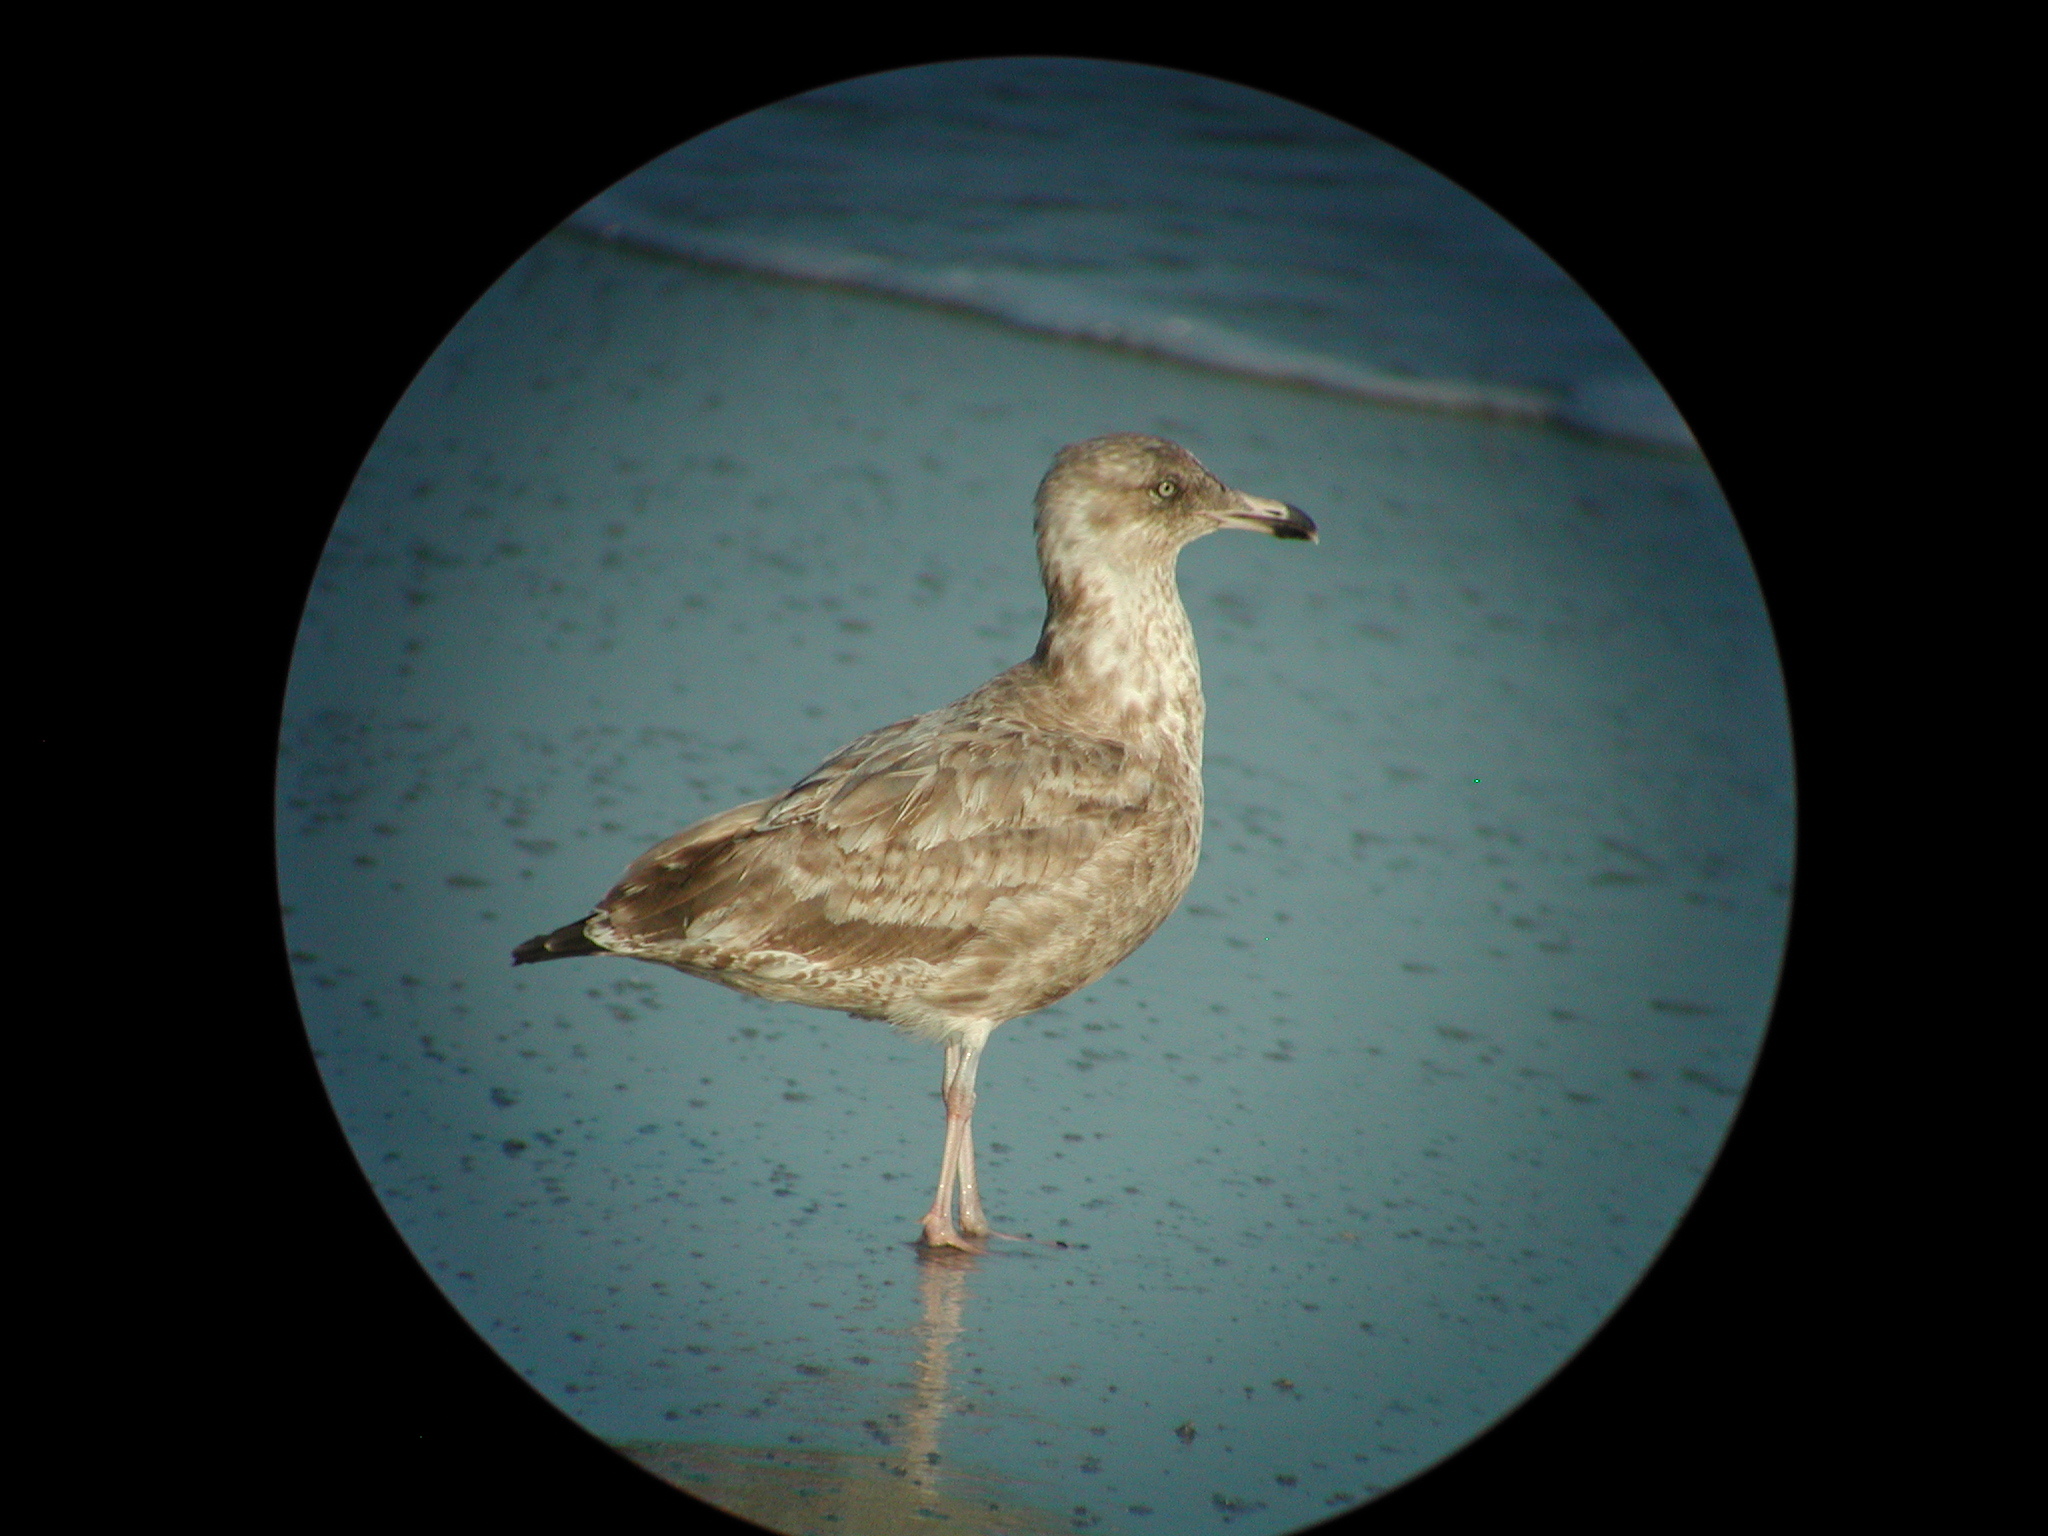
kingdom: Animalia
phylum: Chordata
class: Aves
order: Charadriiformes
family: Laridae
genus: Larus
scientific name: Larus argentatus
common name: Herring gull
